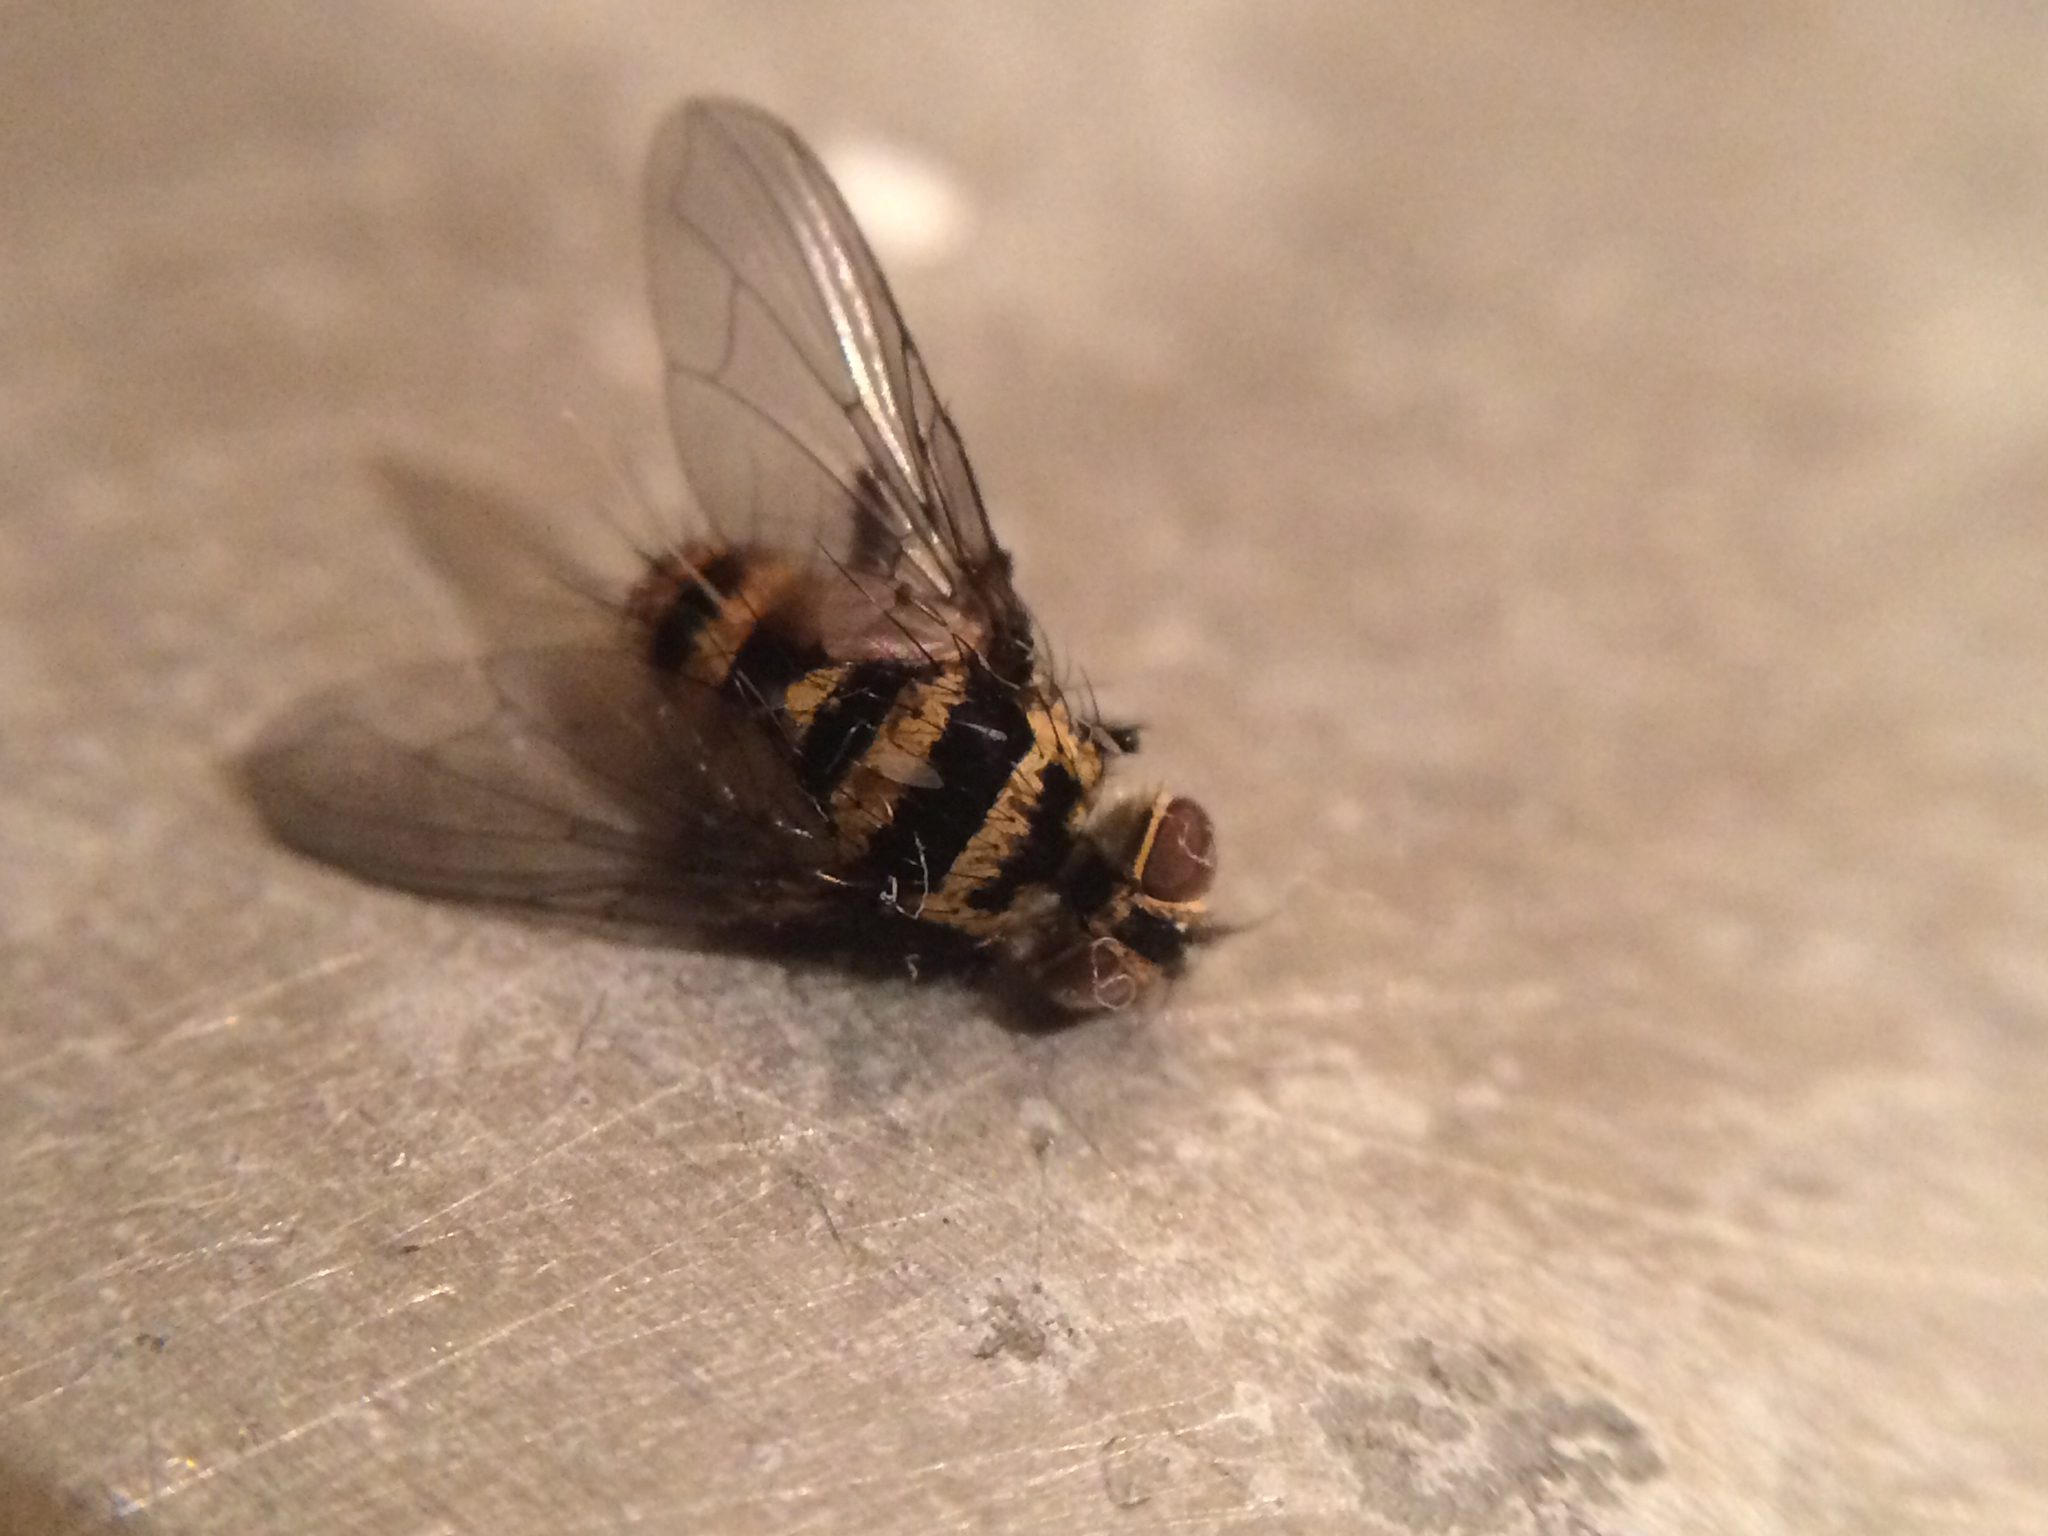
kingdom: Animalia
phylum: Arthropoda
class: Insecta
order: Diptera
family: Tachinidae
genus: Trigonospila
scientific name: Trigonospila brevifacies
